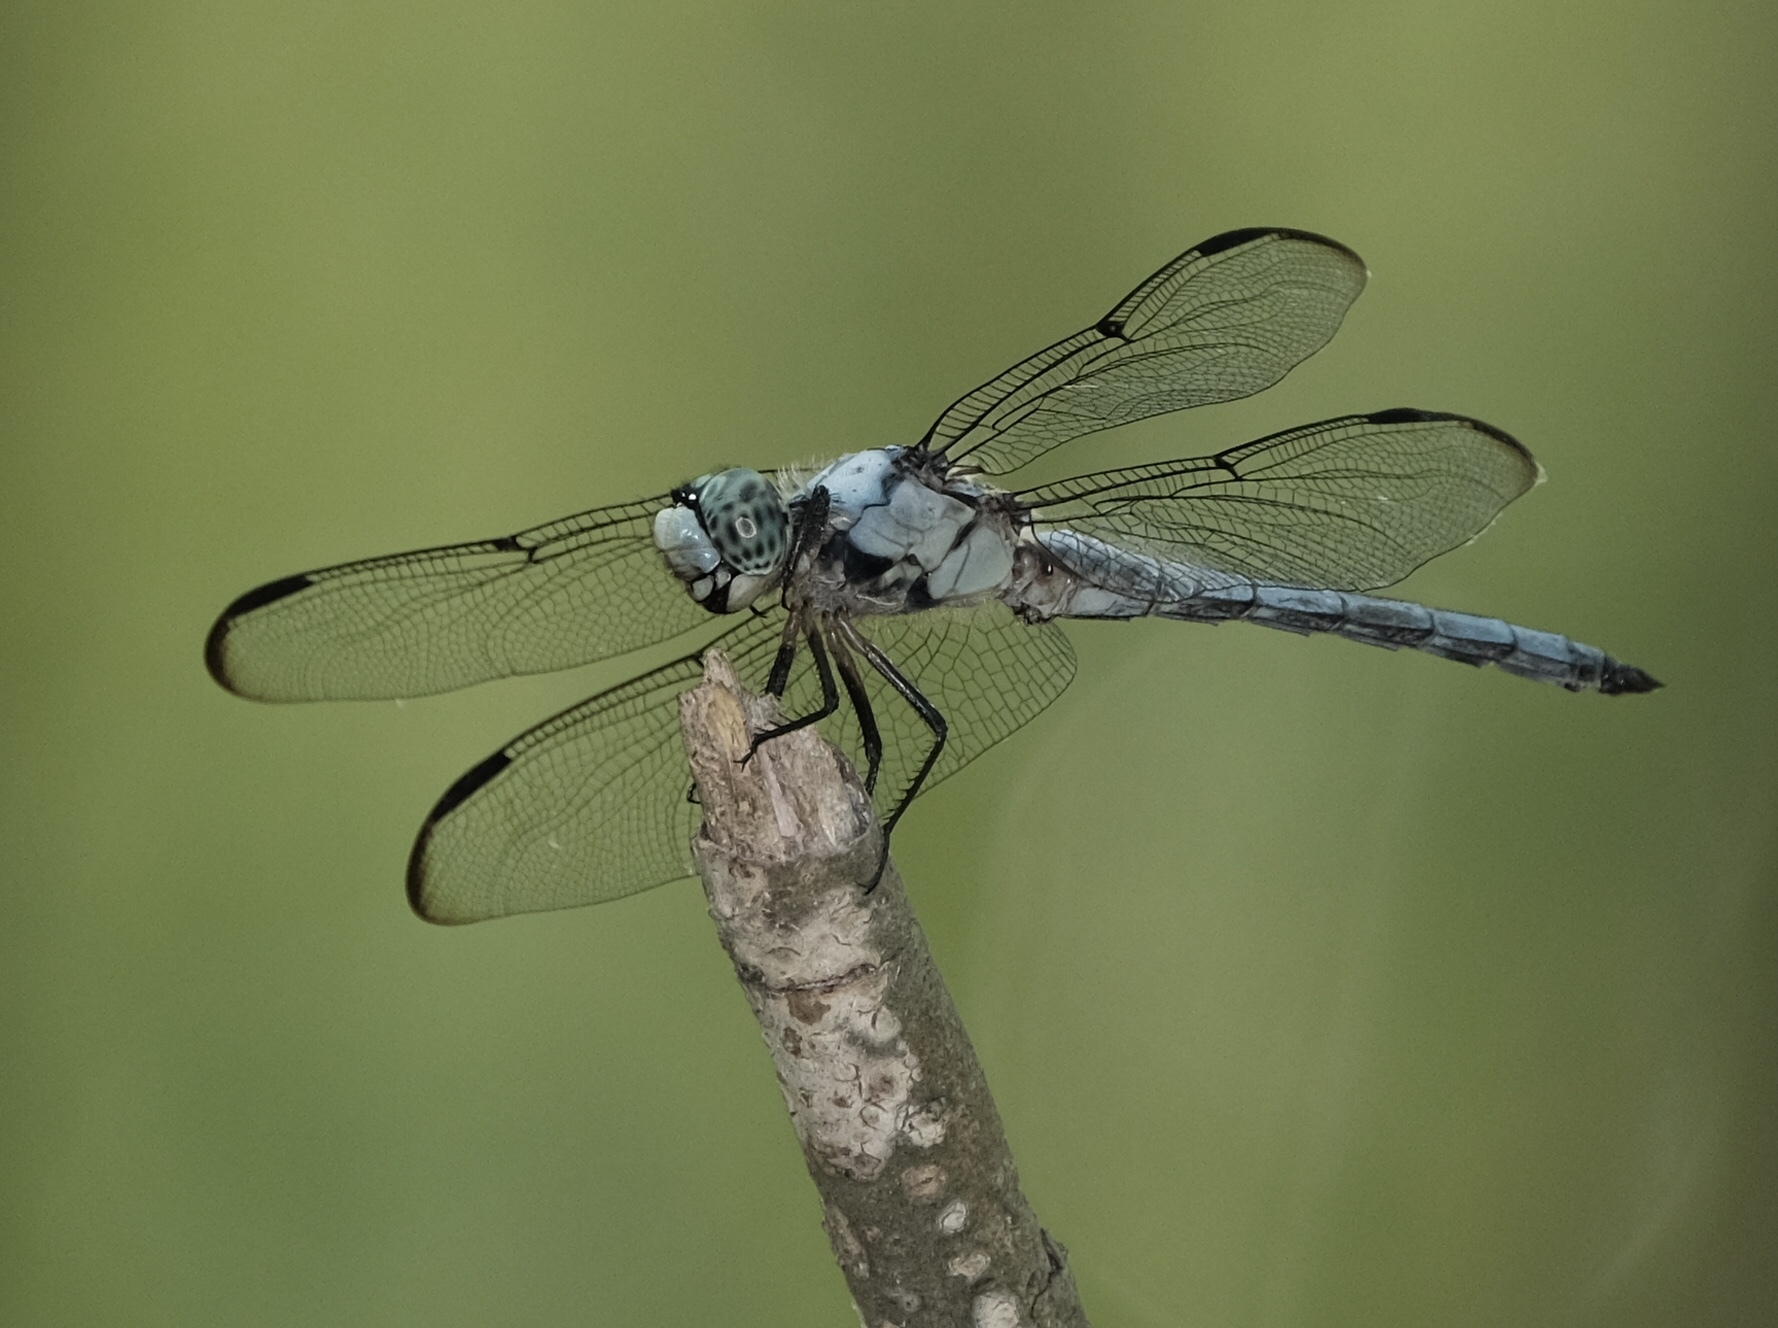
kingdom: Animalia
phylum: Arthropoda
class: Insecta
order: Odonata
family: Libellulidae
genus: Libellula
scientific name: Libellula vibrans
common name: Great blue skimmer
